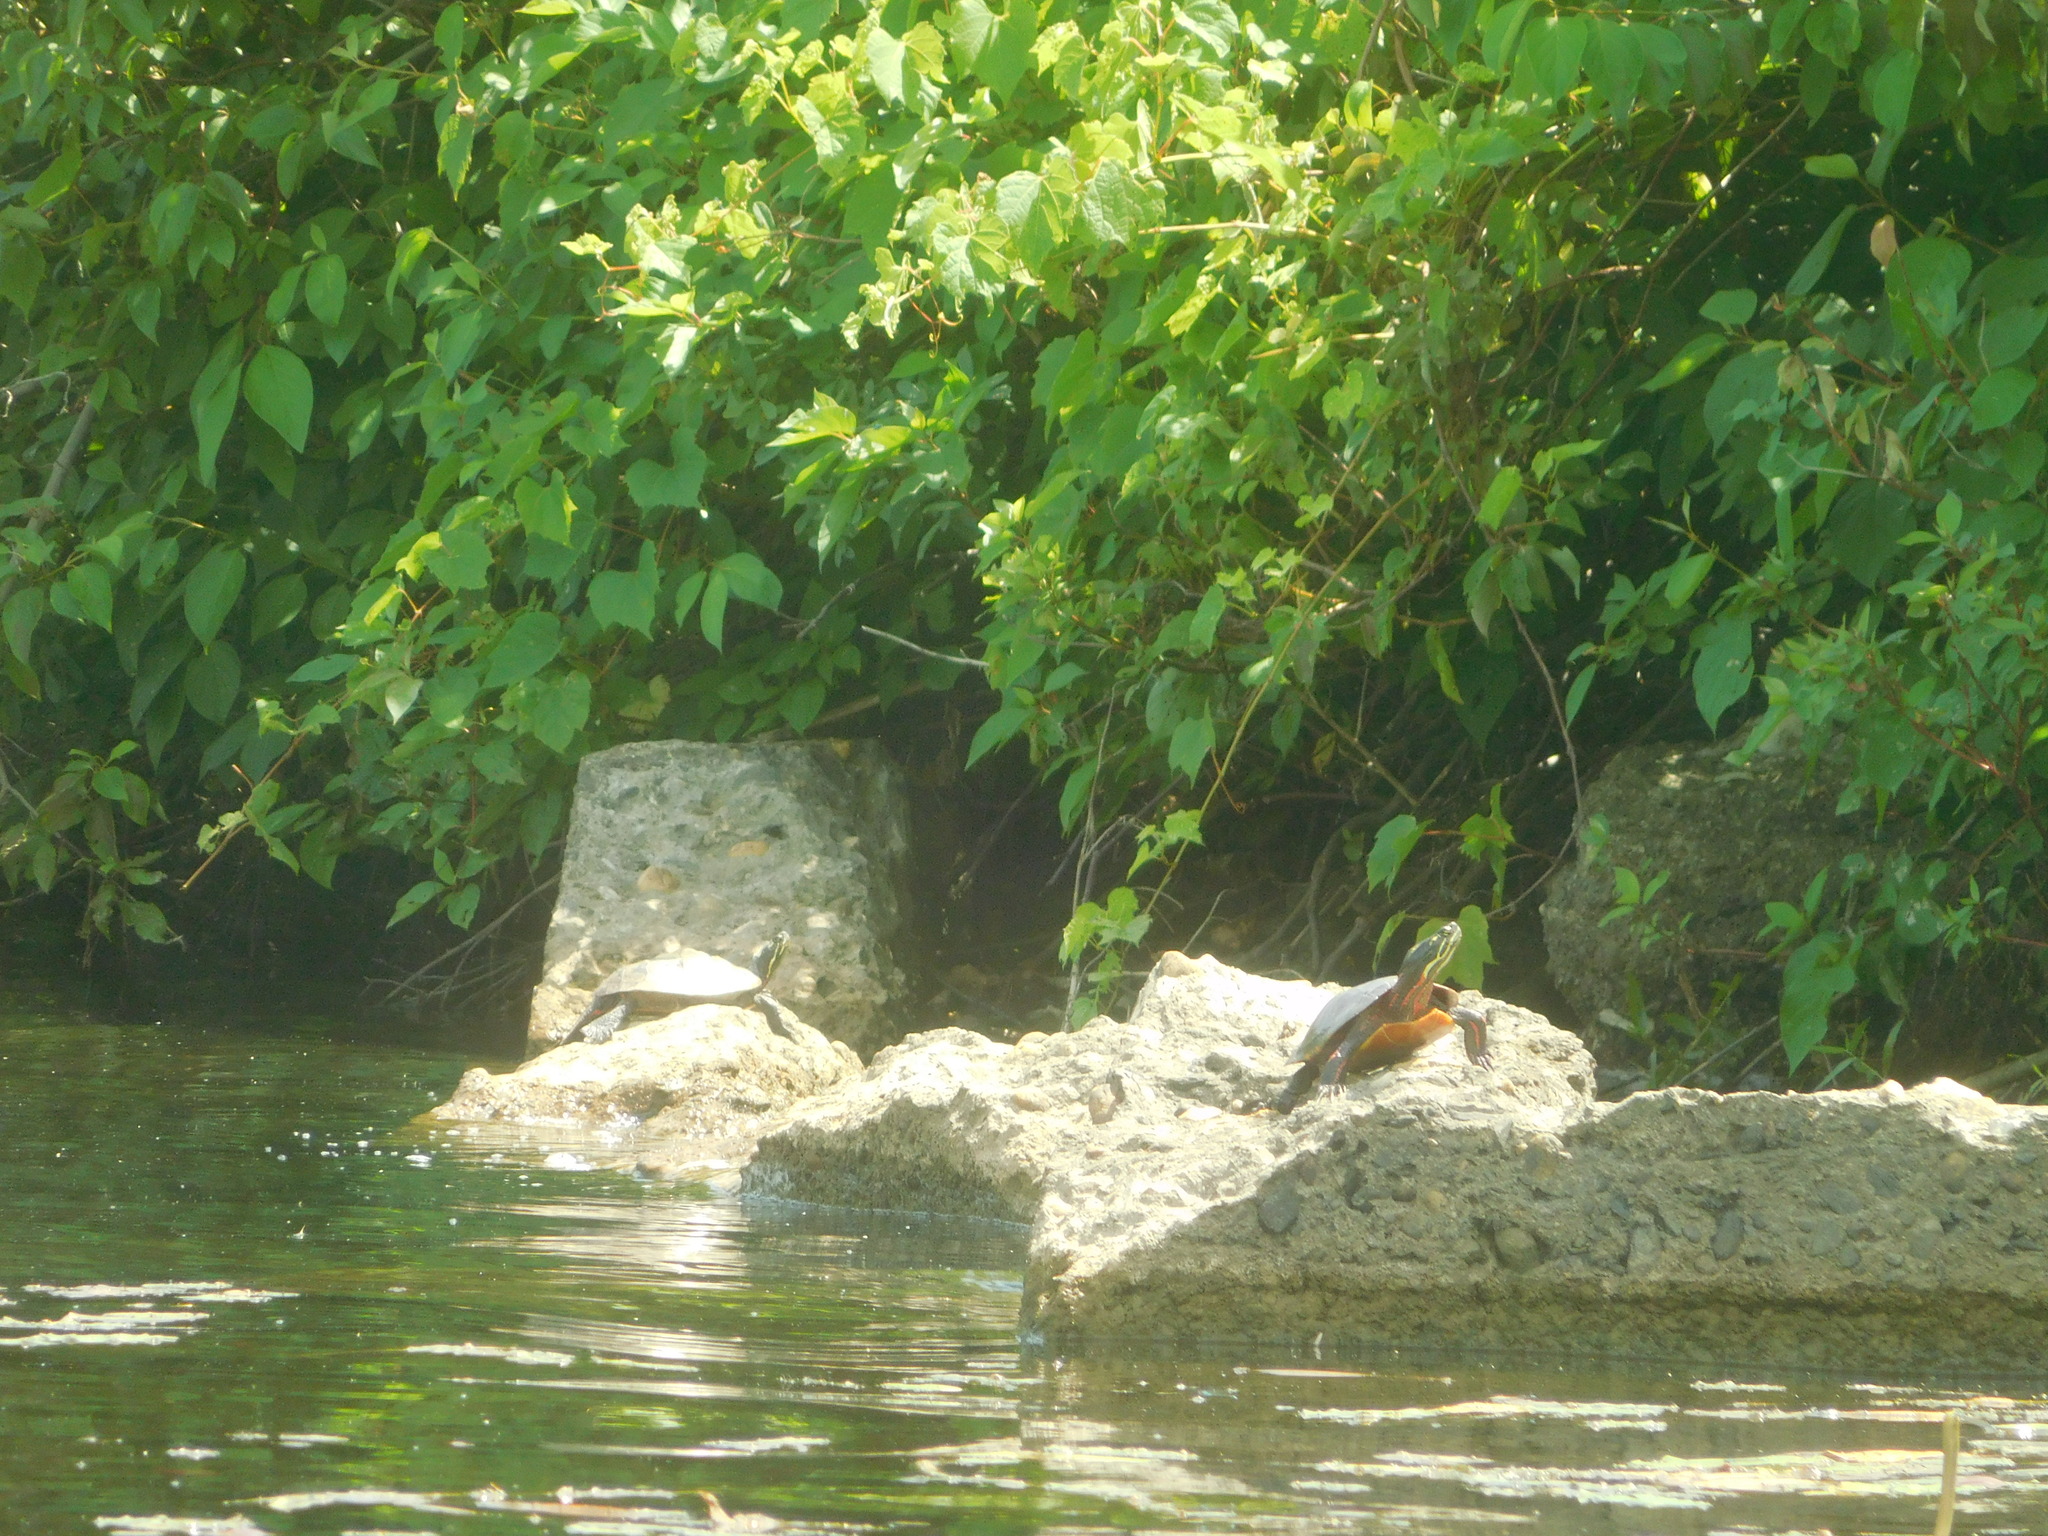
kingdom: Animalia
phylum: Chordata
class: Testudines
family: Emydidae
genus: Chrysemys
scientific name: Chrysemys picta
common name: Painted turtle
